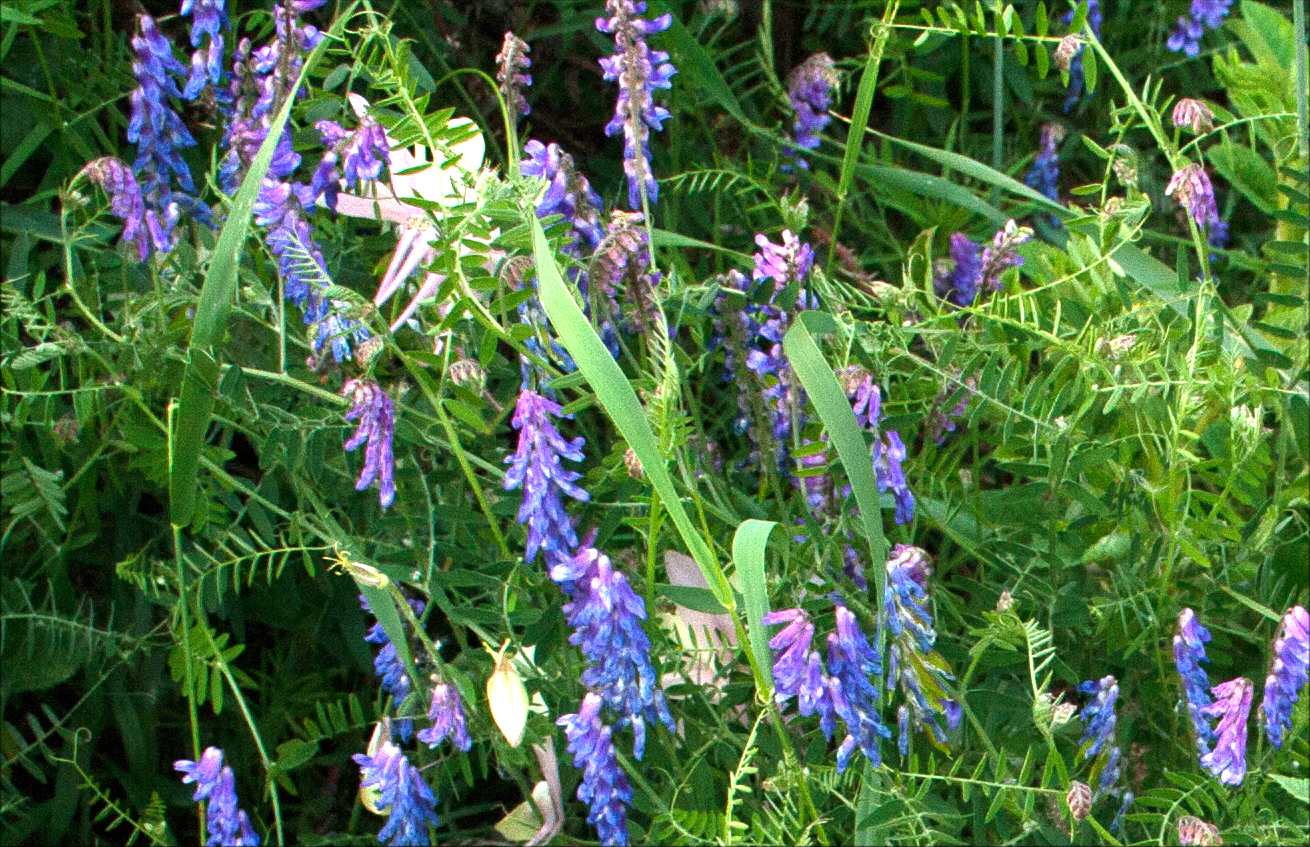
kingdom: Plantae
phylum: Tracheophyta
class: Magnoliopsida
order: Fabales
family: Fabaceae
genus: Vicia
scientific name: Vicia cracca
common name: Bird vetch
